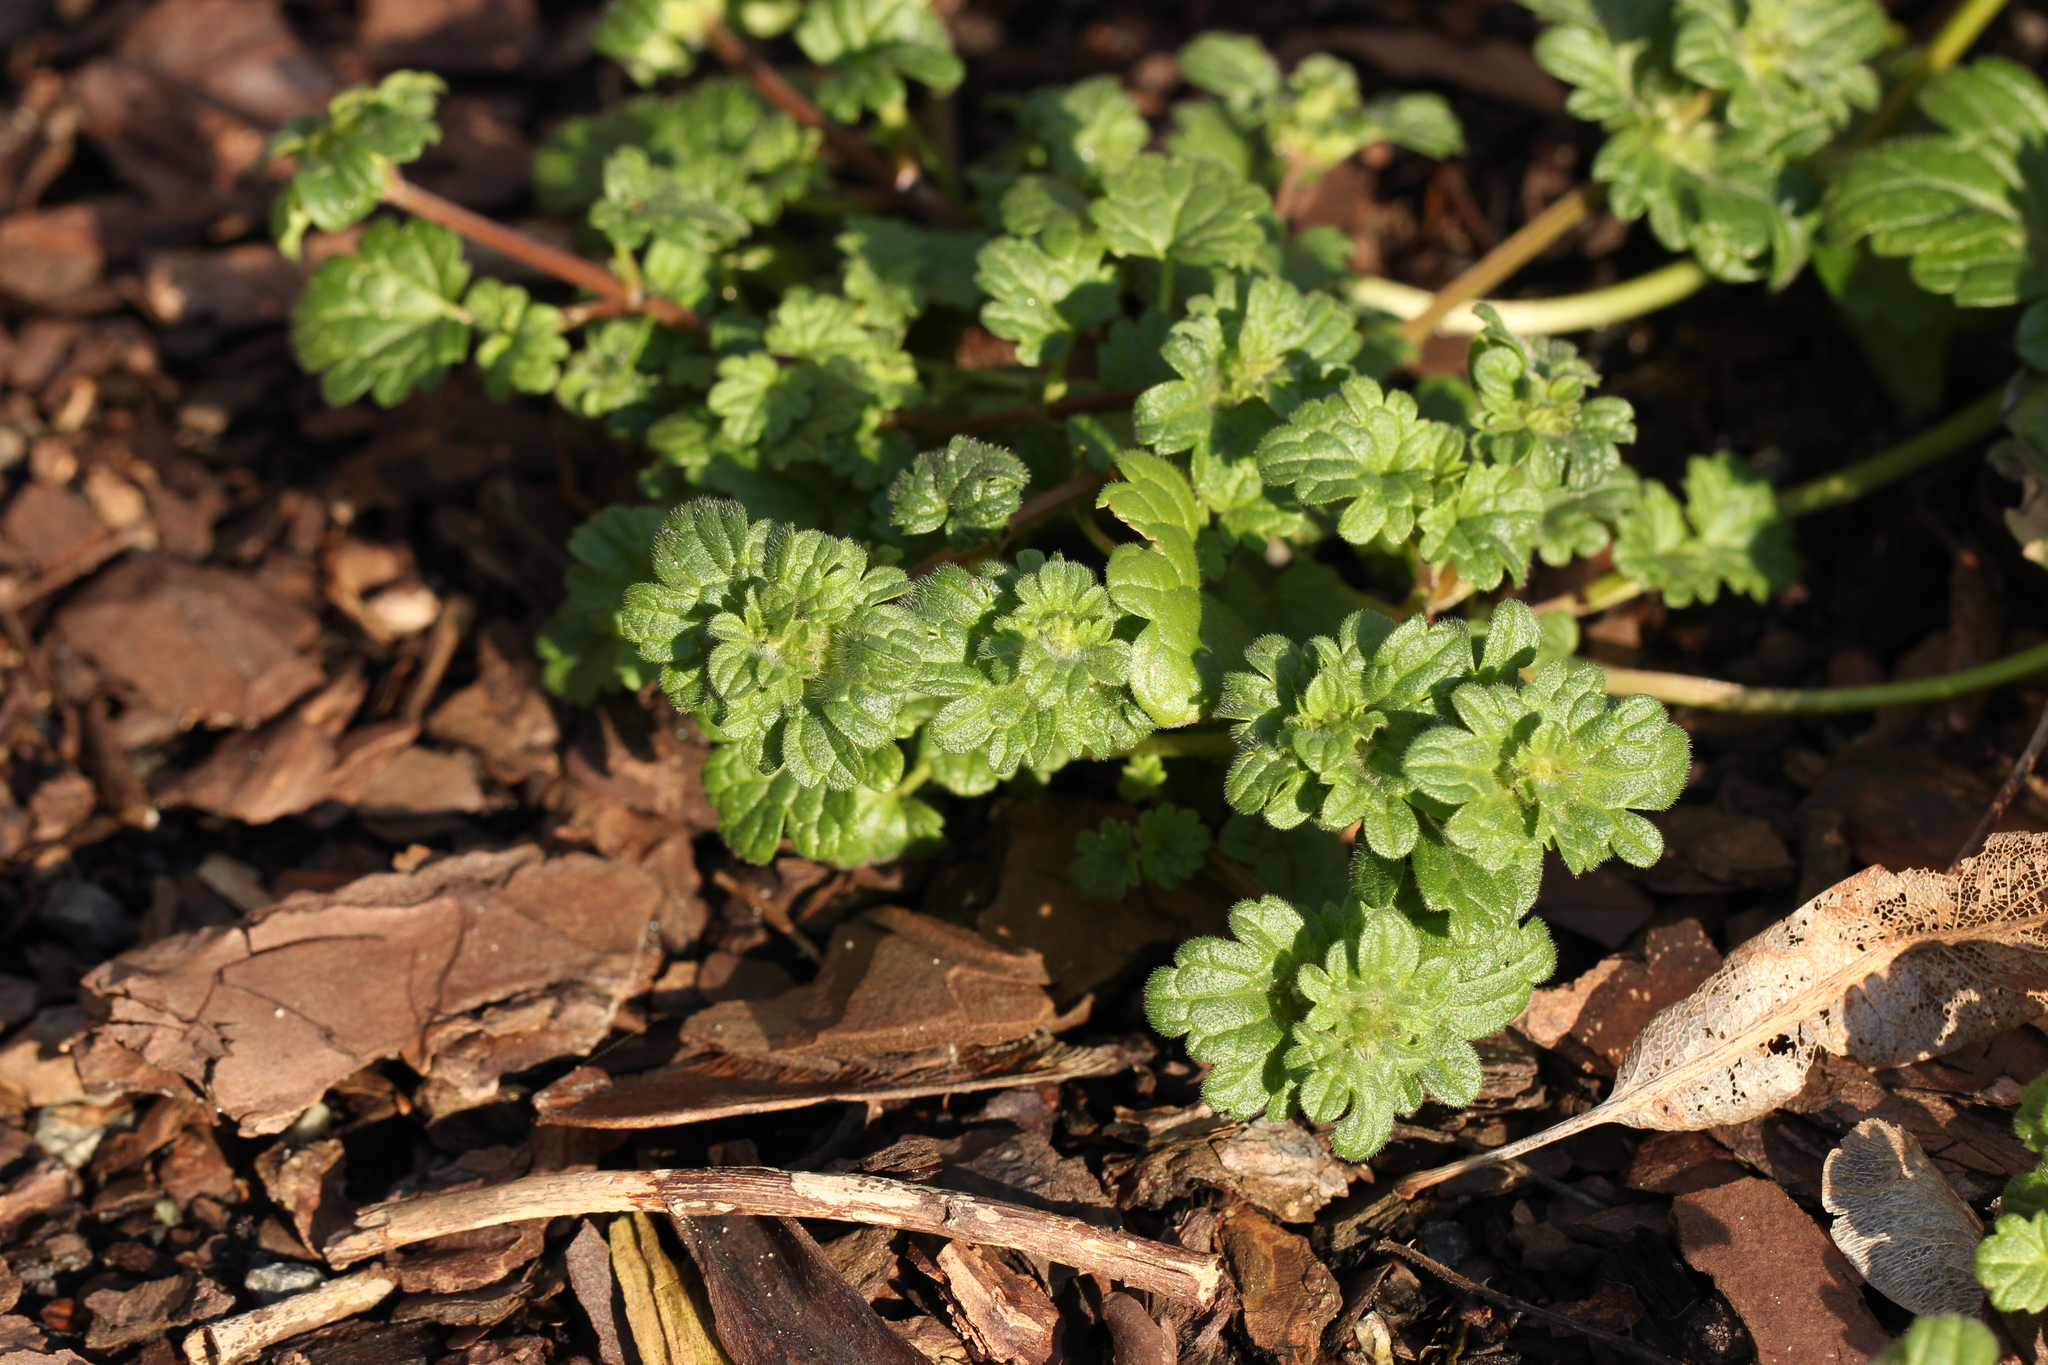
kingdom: Plantae
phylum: Tracheophyta
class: Magnoliopsida
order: Lamiales
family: Lamiaceae
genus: Lamium
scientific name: Lamium amplexicaule
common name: Henbit dead-nettle
